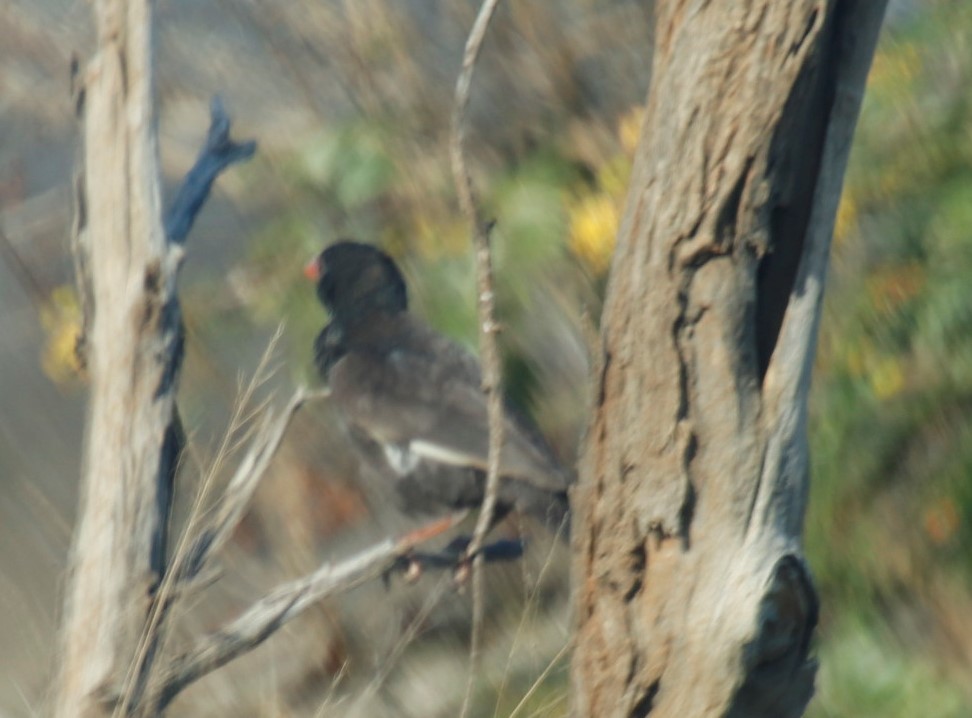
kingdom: Animalia
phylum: Chordata
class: Aves
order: Passeriformes
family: Ploceidae
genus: Bubalornis
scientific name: Bubalornis niger
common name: Red-billed buffalo weaver
